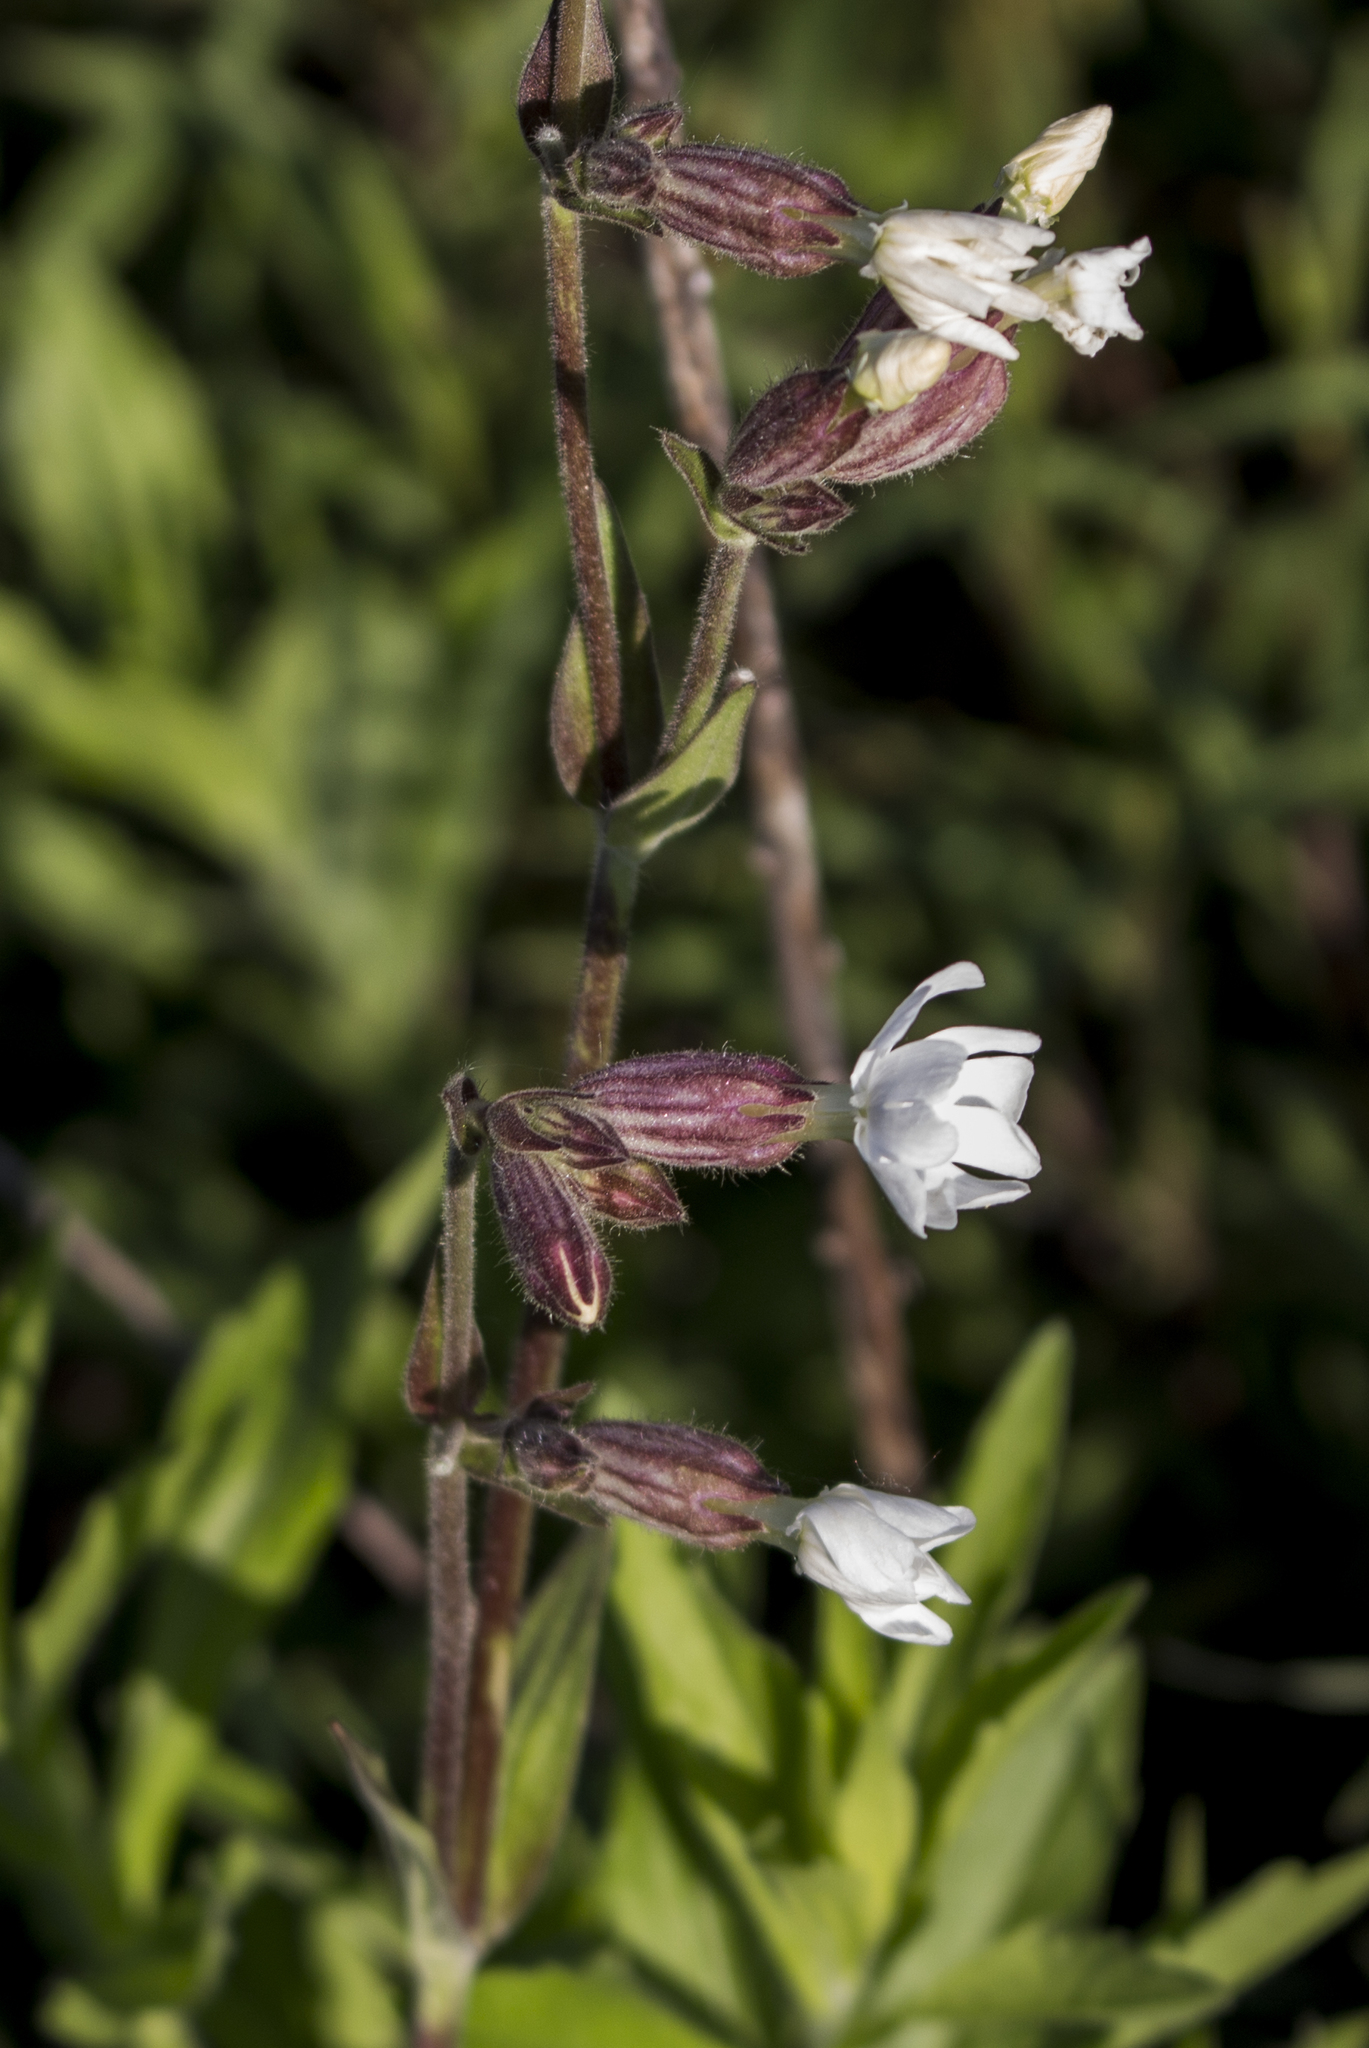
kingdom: Plantae
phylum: Tracheophyta
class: Magnoliopsida
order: Caryophyllales
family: Caryophyllaceae
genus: Silene
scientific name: Silene latifolia
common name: White campion
